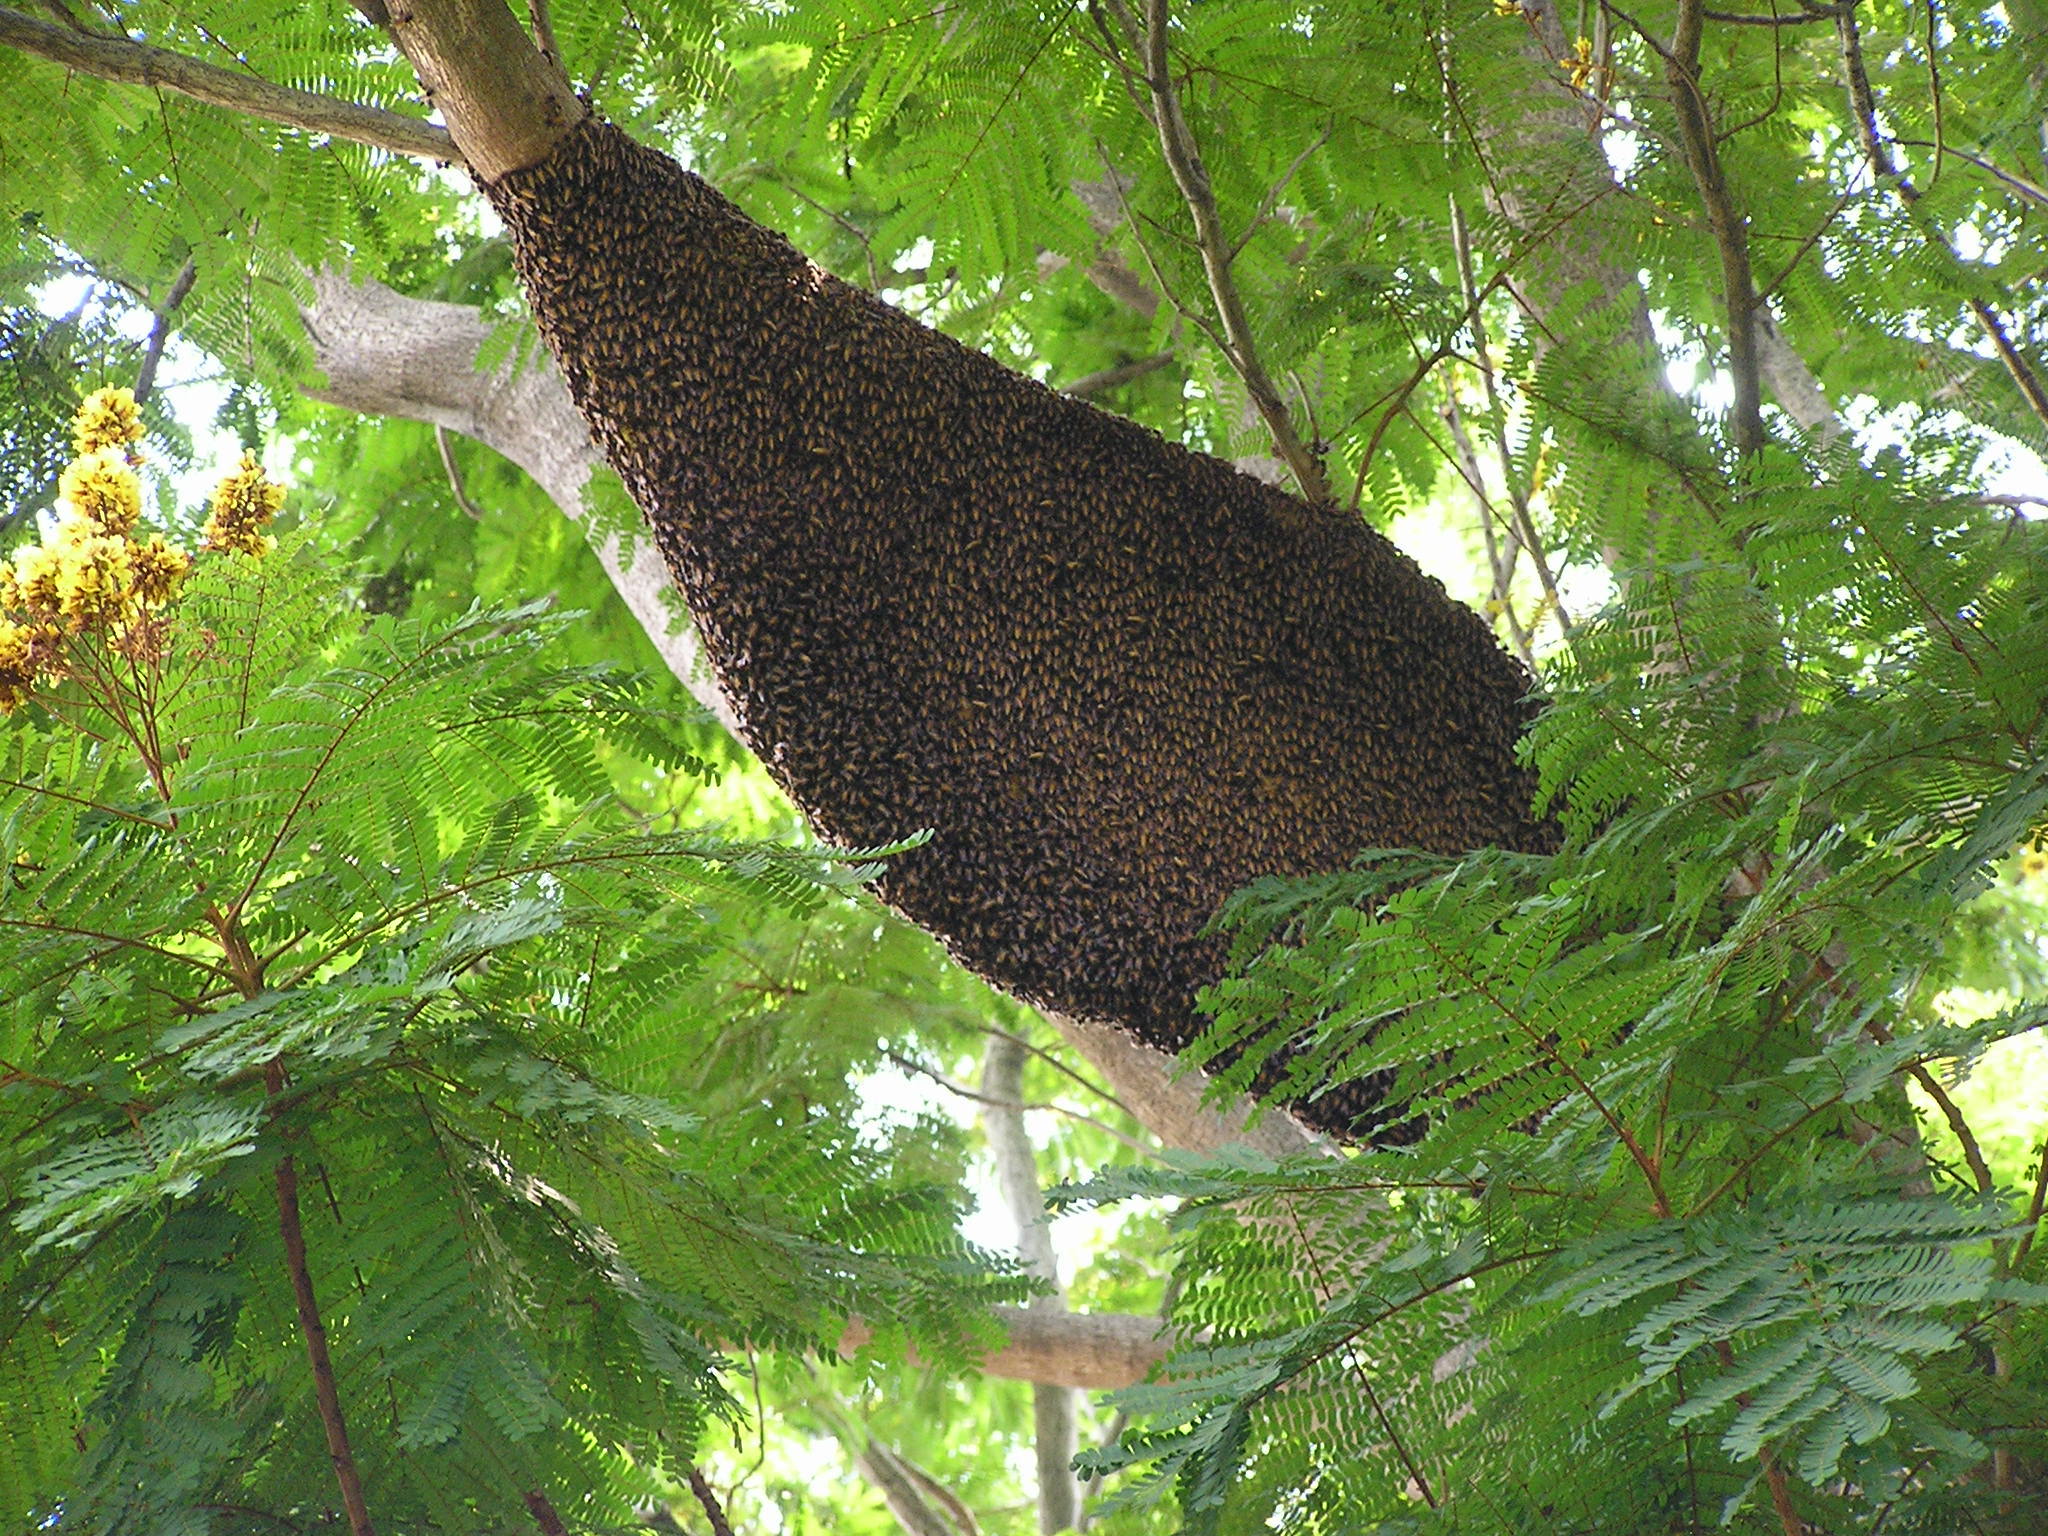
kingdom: Animalia
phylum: Arthropoda
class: Insecta
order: Hymenoptera
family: Apidae
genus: Apis
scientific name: Apis dorsata
